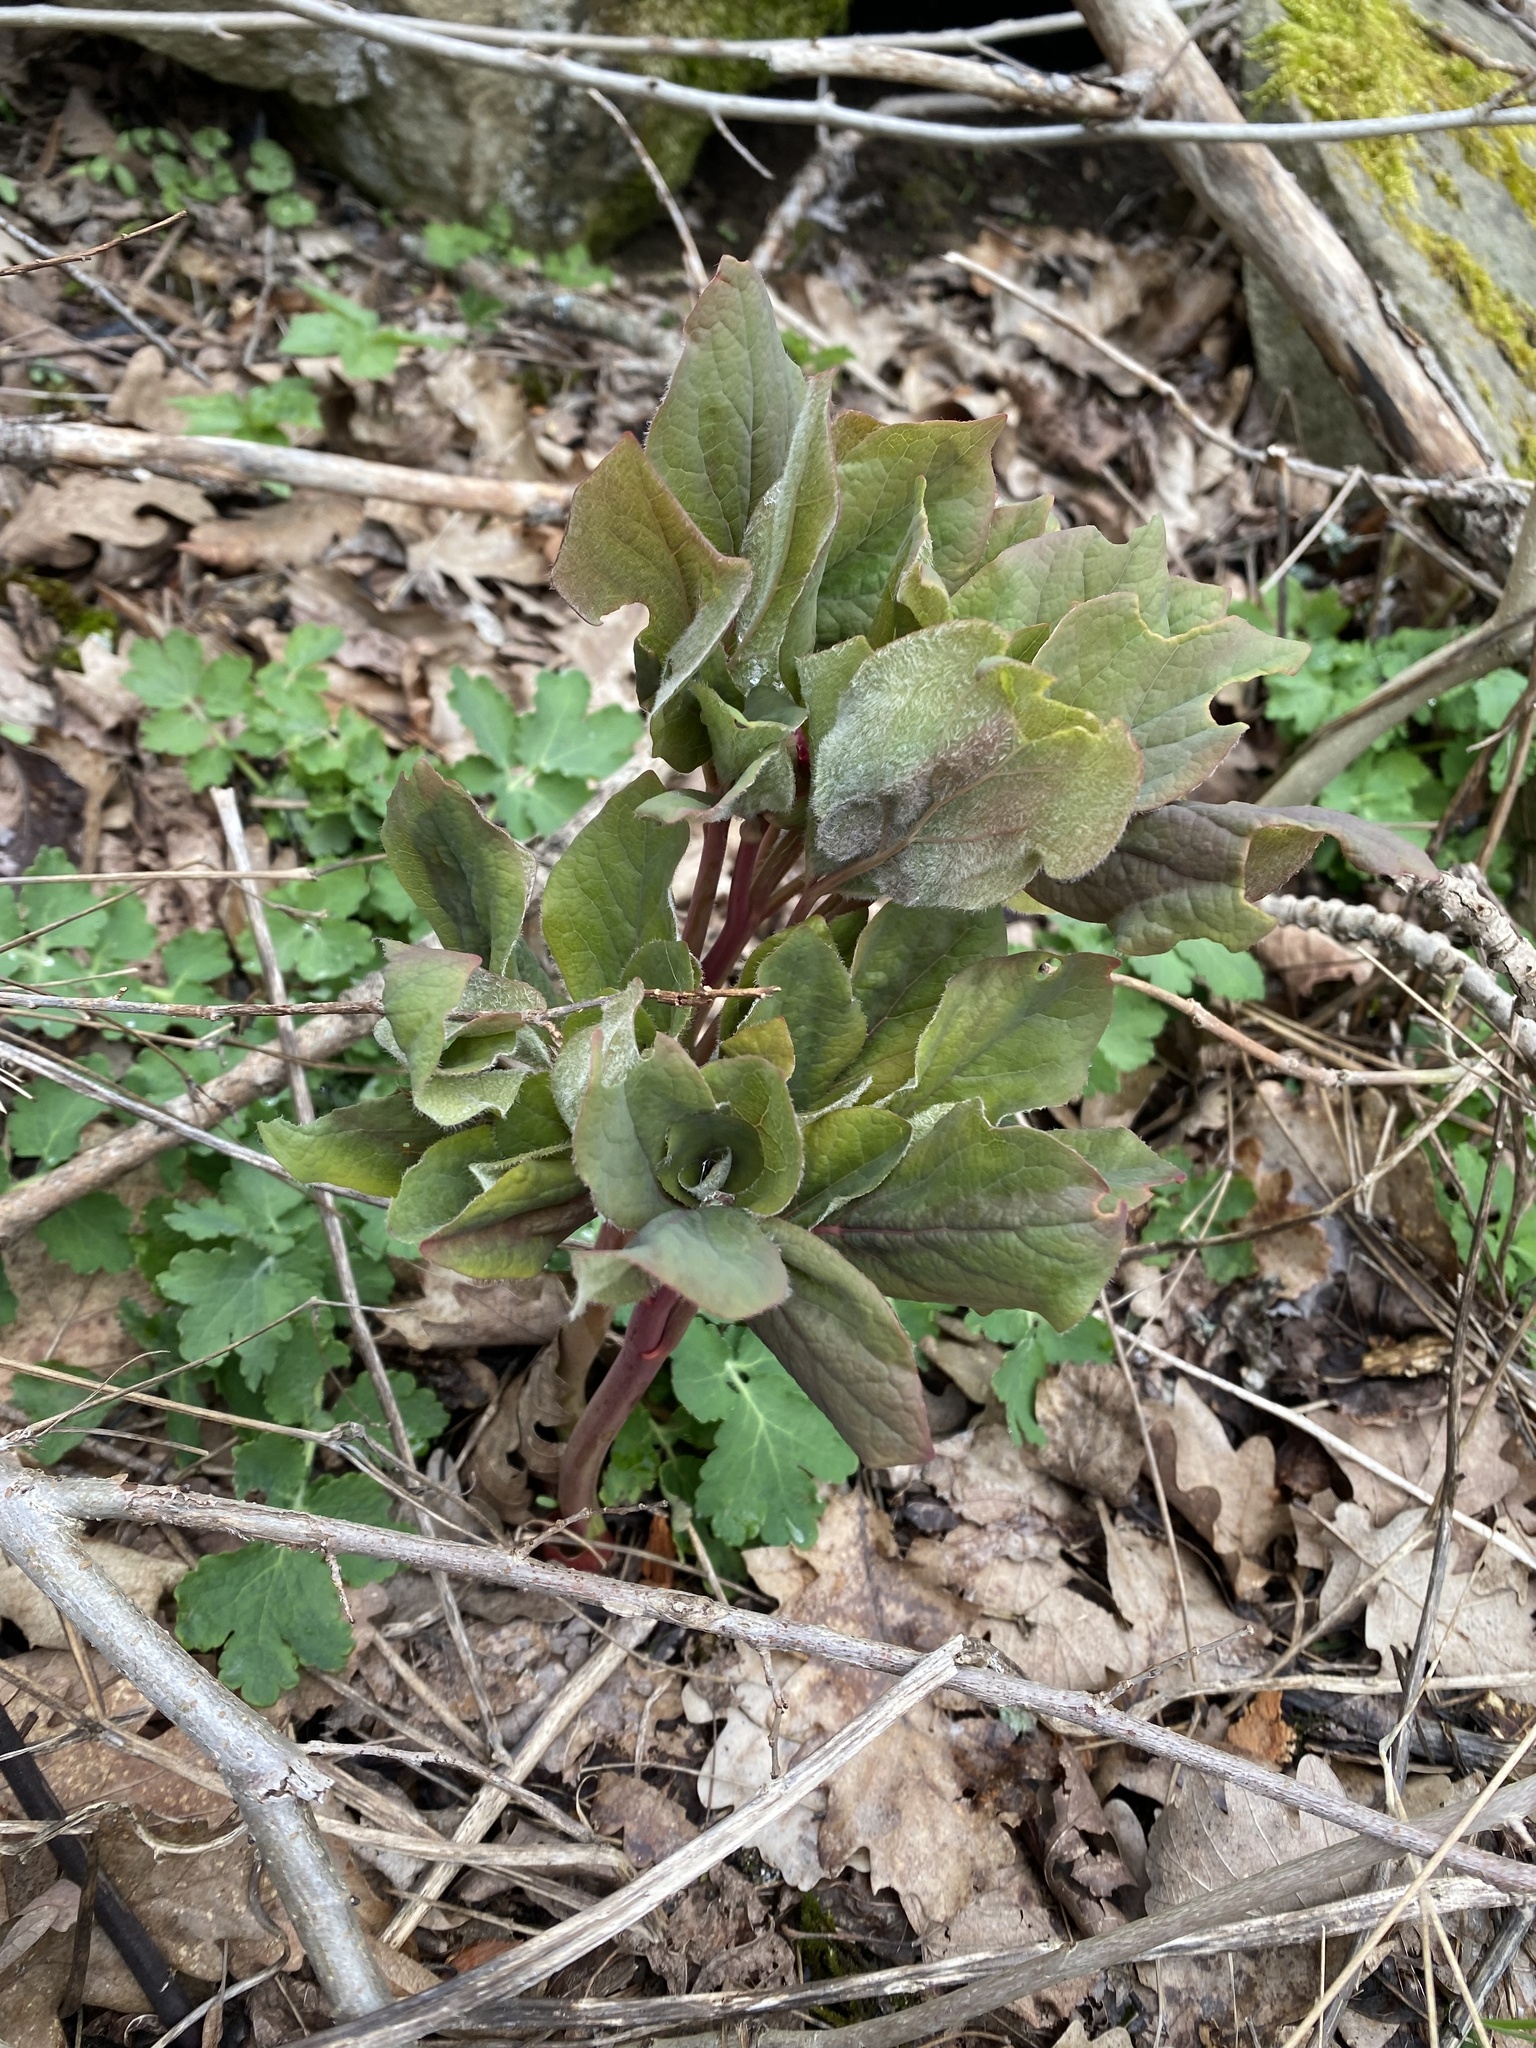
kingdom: Plantae
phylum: Tracheophyta
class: Magnoliopsida
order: Saxifragales
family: Paeoniaceae
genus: Paeonia
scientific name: Paeonia caucasica
